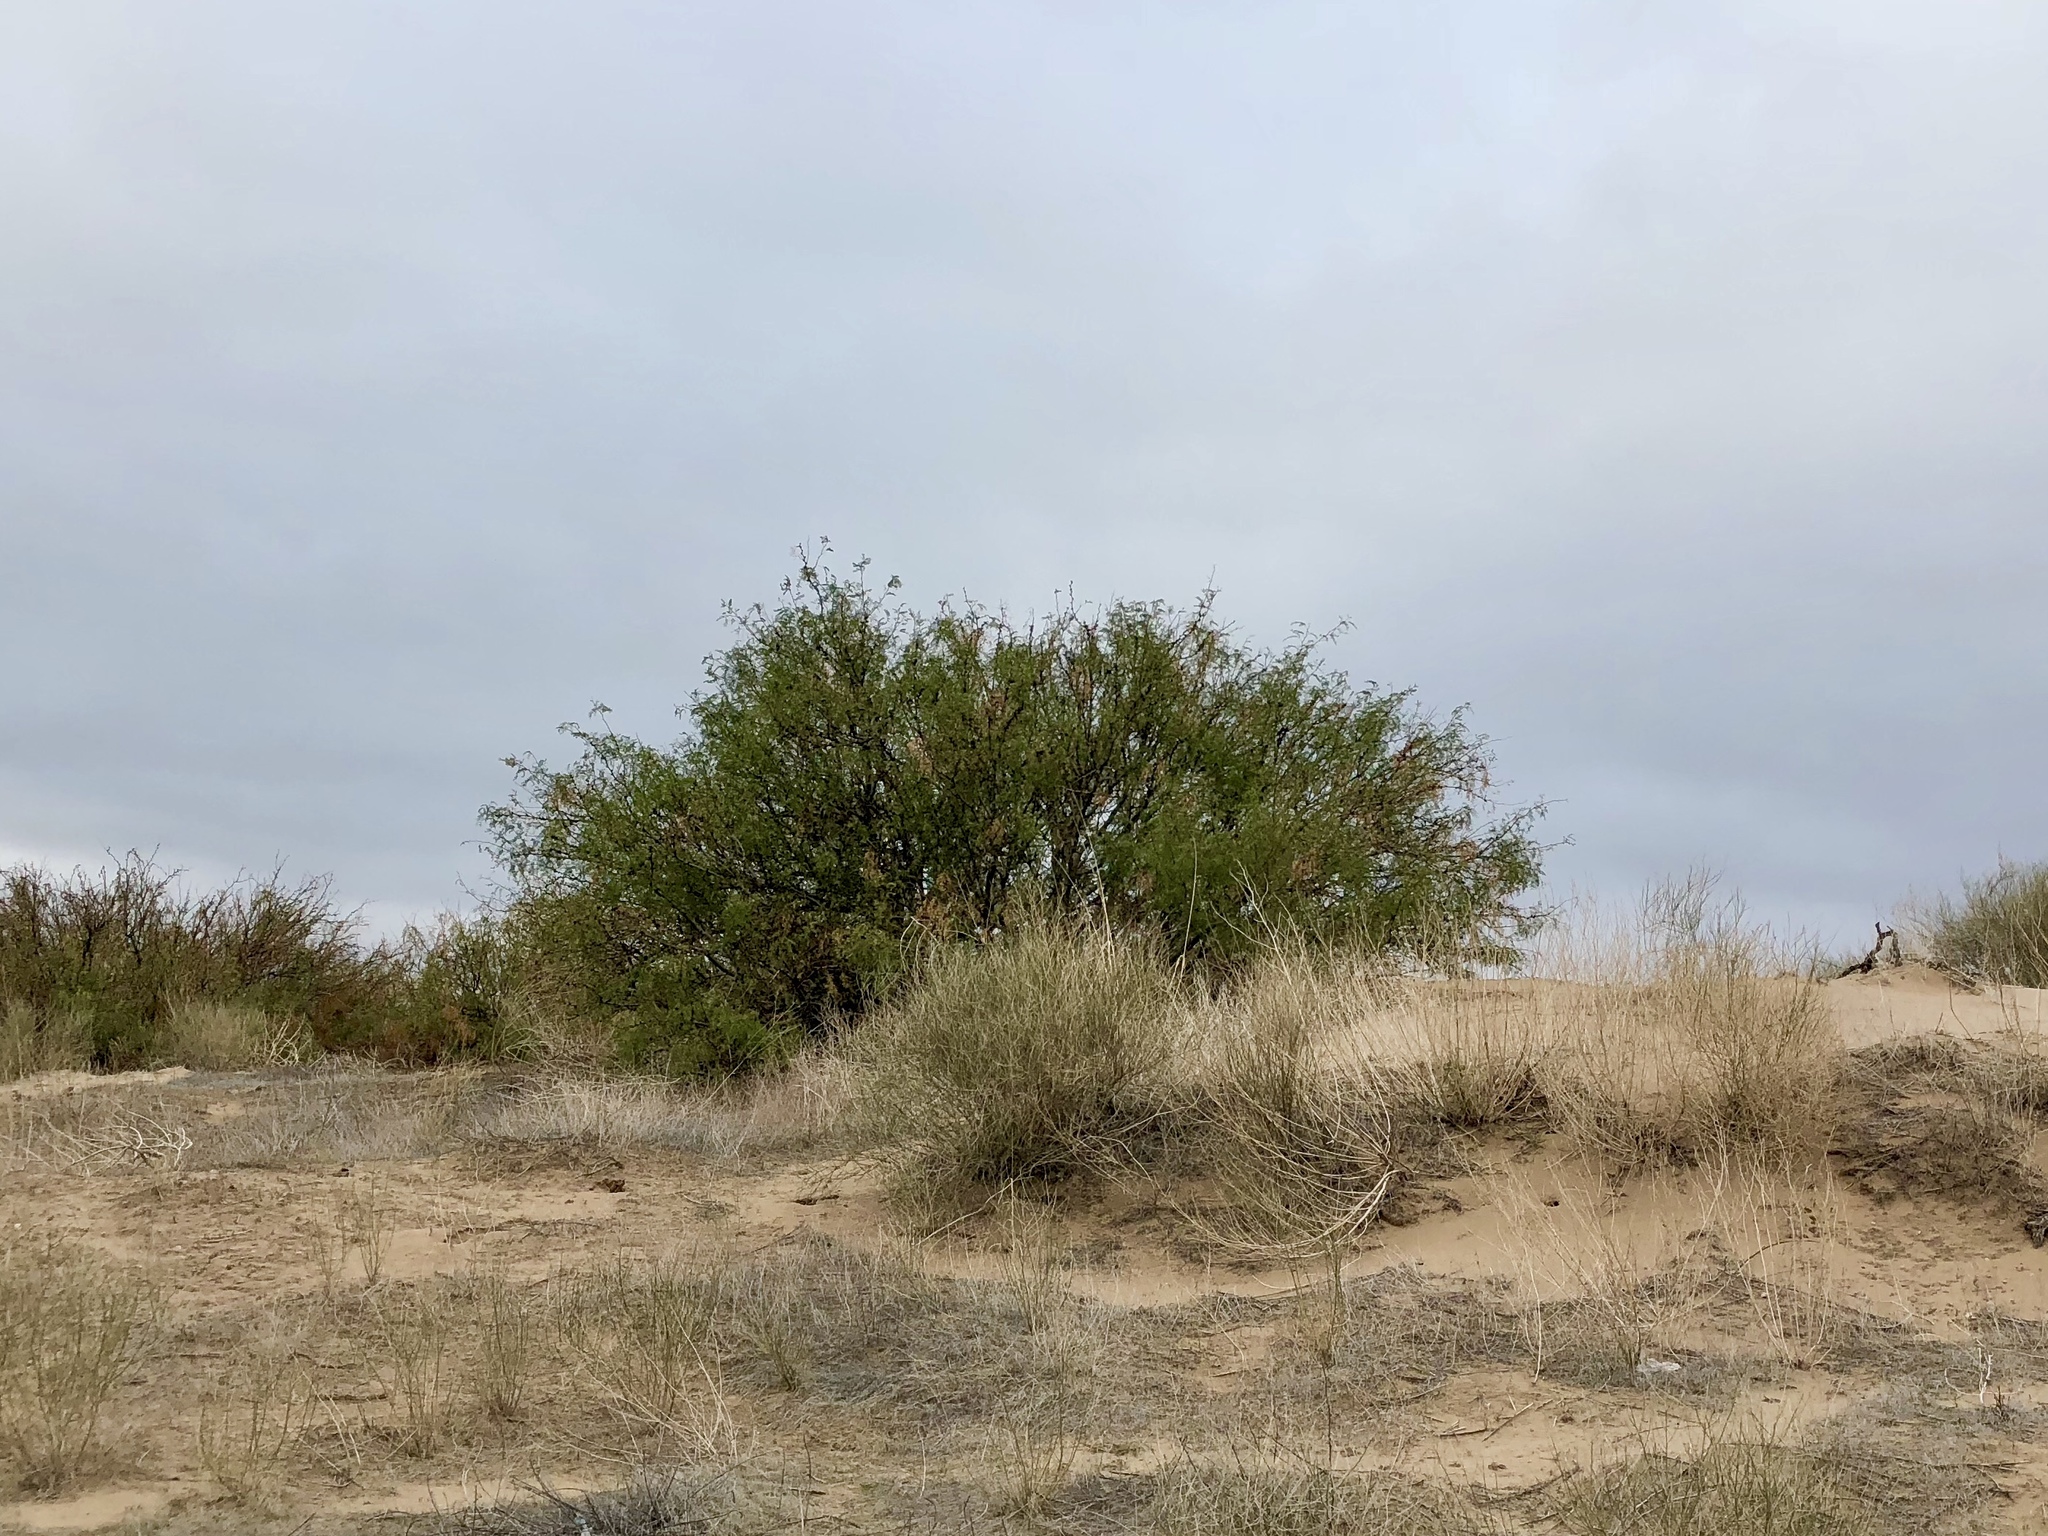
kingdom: Plantae
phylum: Tracheophyta
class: Magnoliopsida
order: Fabales
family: Fabaceae
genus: Prosopis
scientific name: Prosopis glandulosa
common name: Honey mesquite
